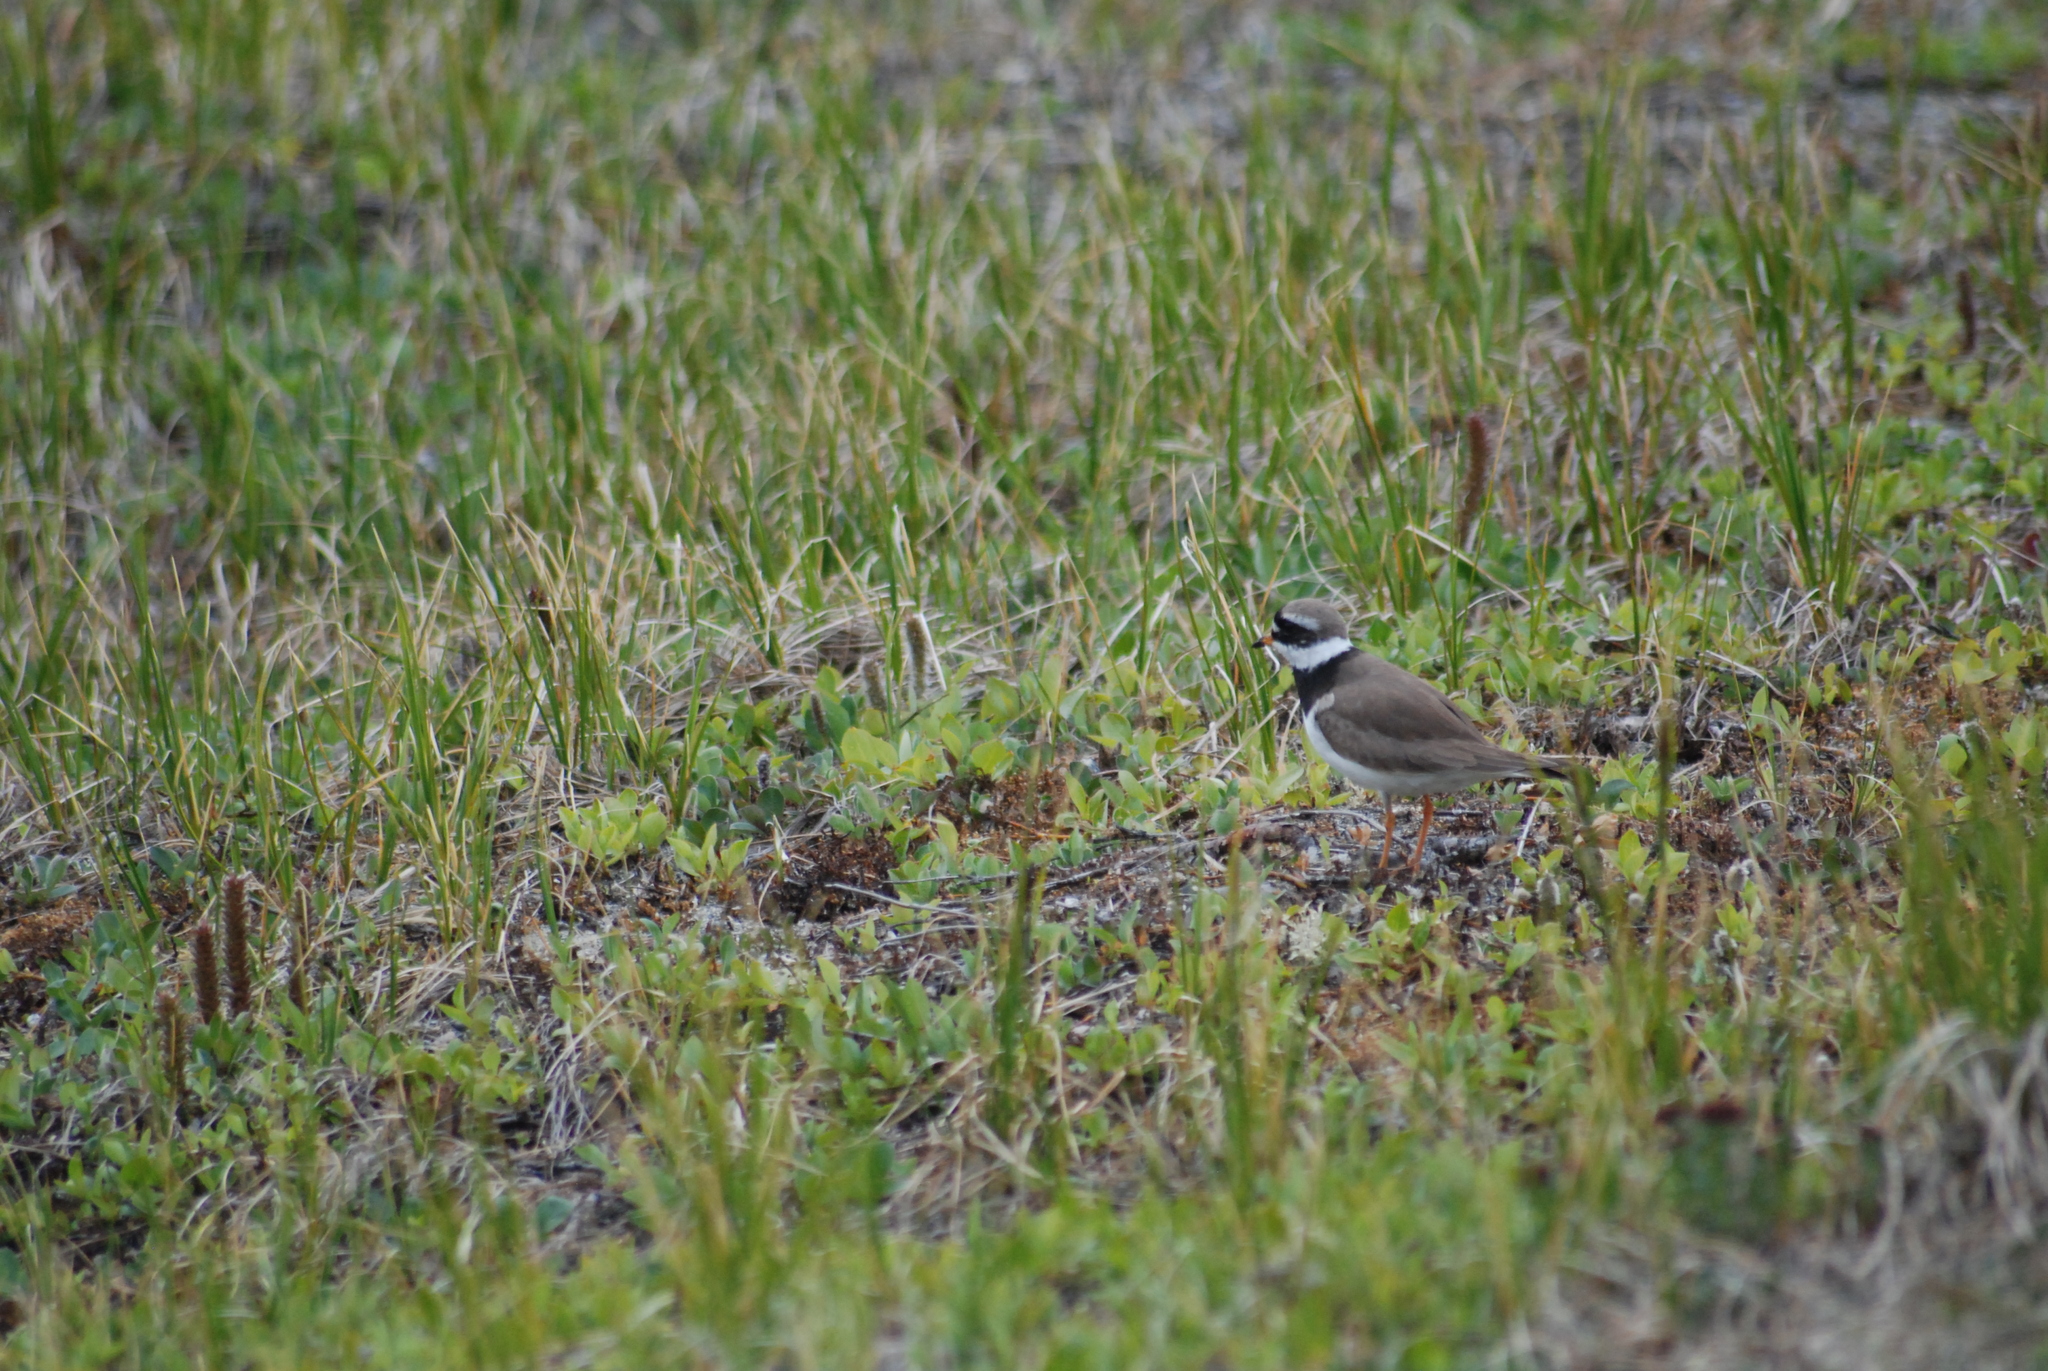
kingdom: Animalia
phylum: Chordata
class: Aves
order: Charadriiformes
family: Charadriidae
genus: Charadrius
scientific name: Charadrius hiaticula
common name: Common ringed plover
